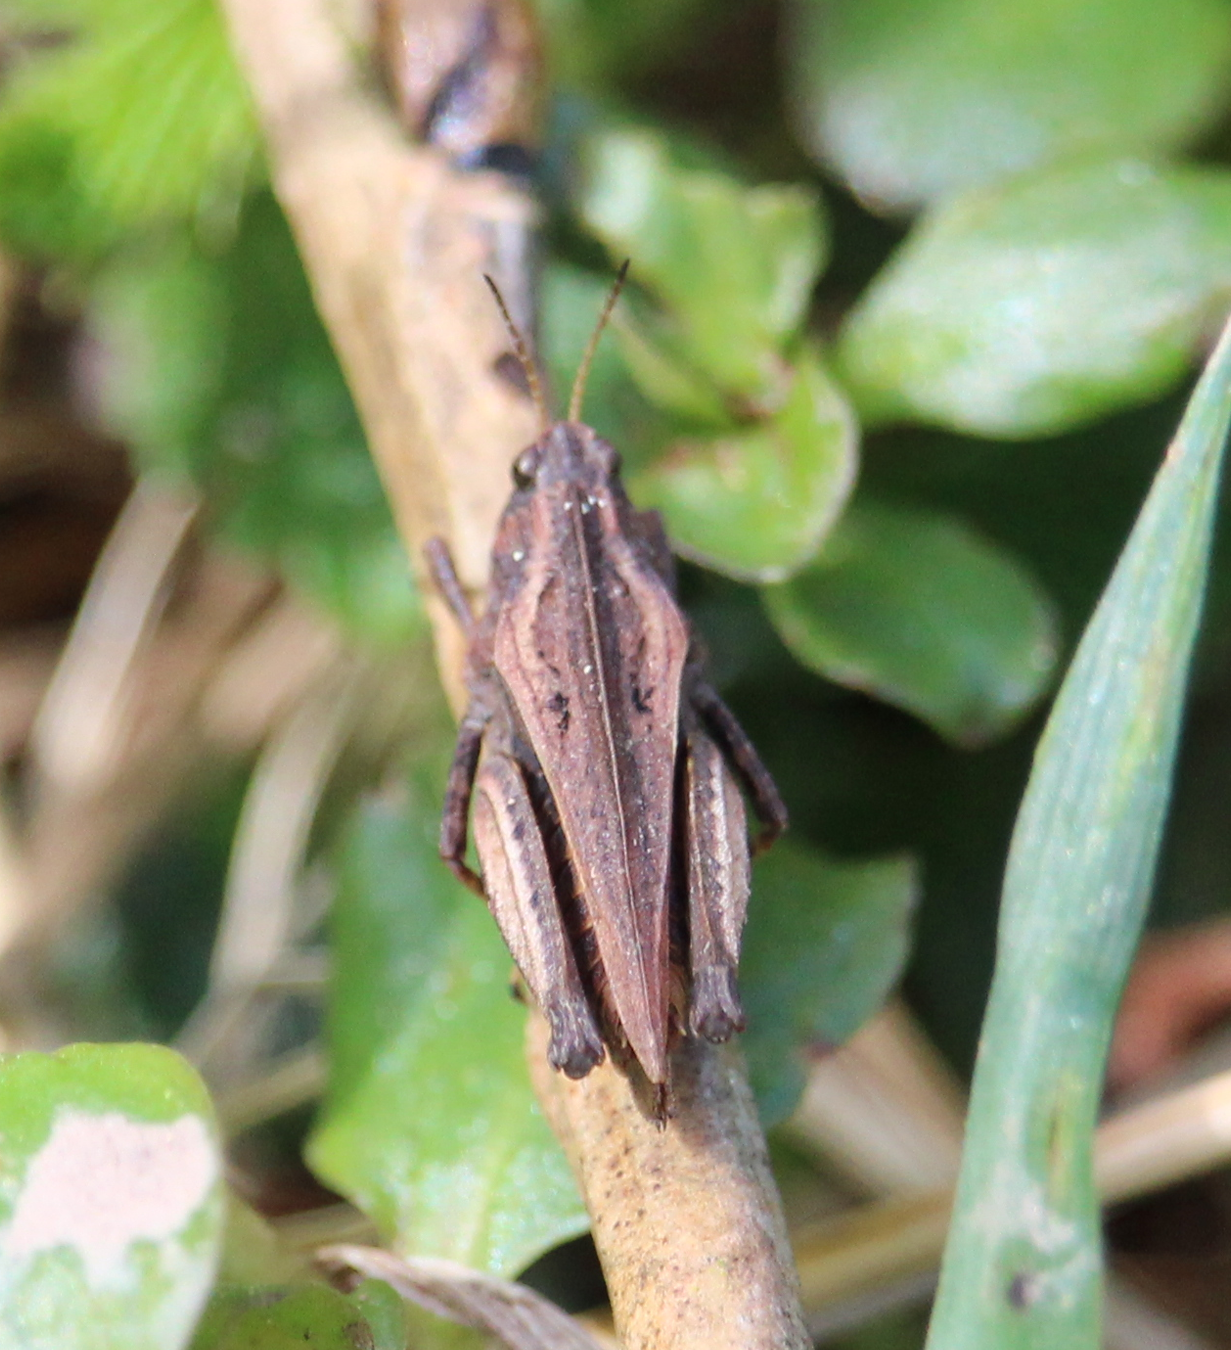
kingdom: Animalia
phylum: Arthropoda
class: Insecta
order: Orthoptera
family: Tetrigidae
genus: Tetrix
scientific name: Tetrix undulata
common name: Common groundhopper
